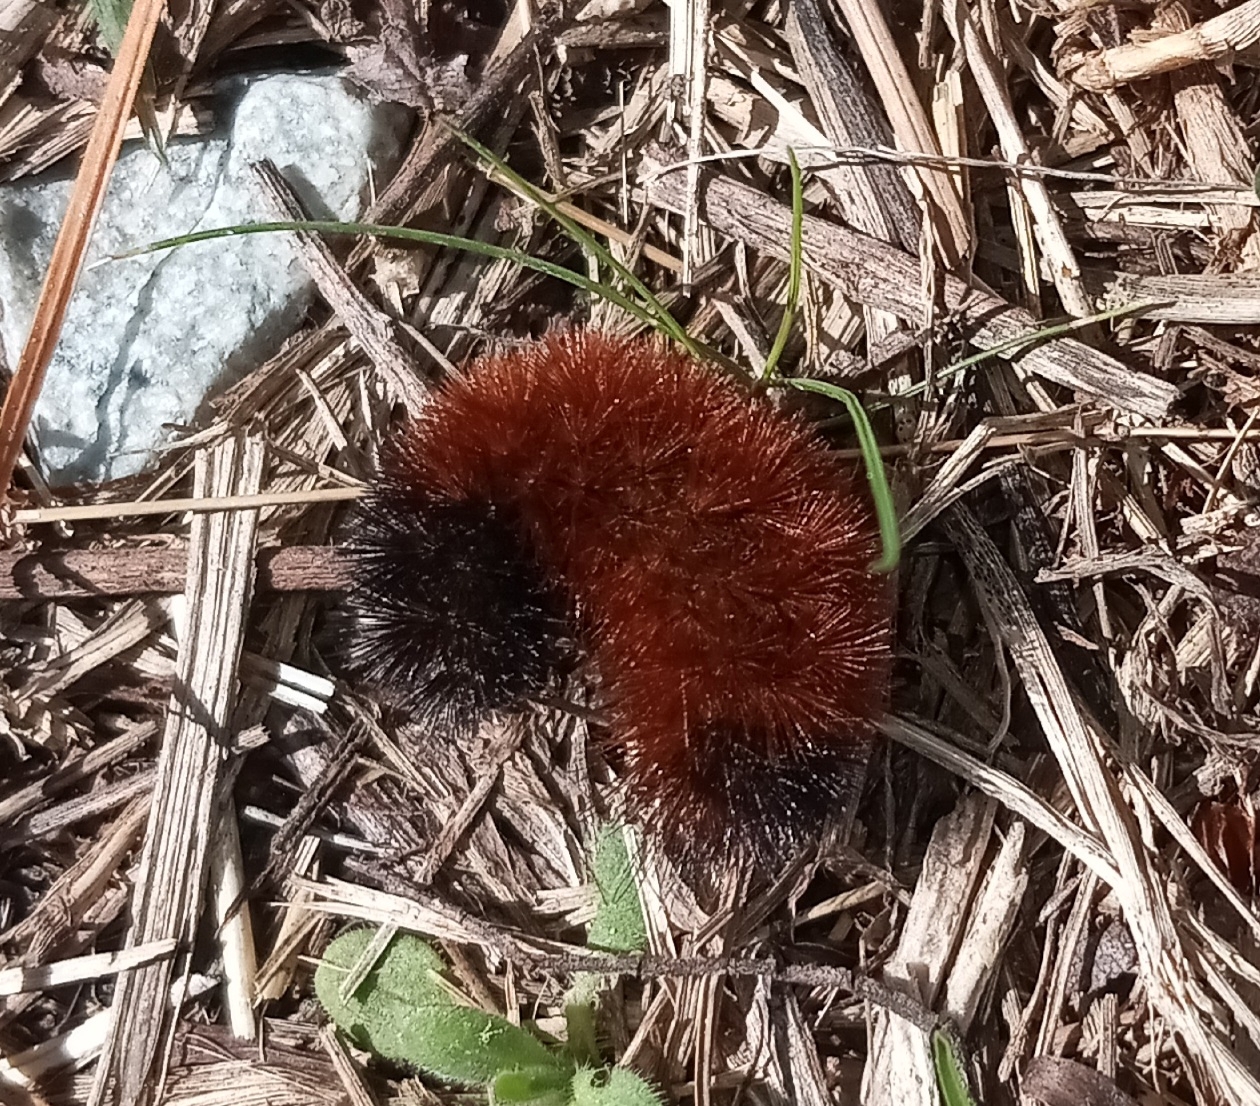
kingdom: Animalia
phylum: Arthropoda
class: Insecta
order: Lepidoptera
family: Erebidae
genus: Pyrrharctia
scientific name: Pyrrharctia isabella
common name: Isabella tiger moth
